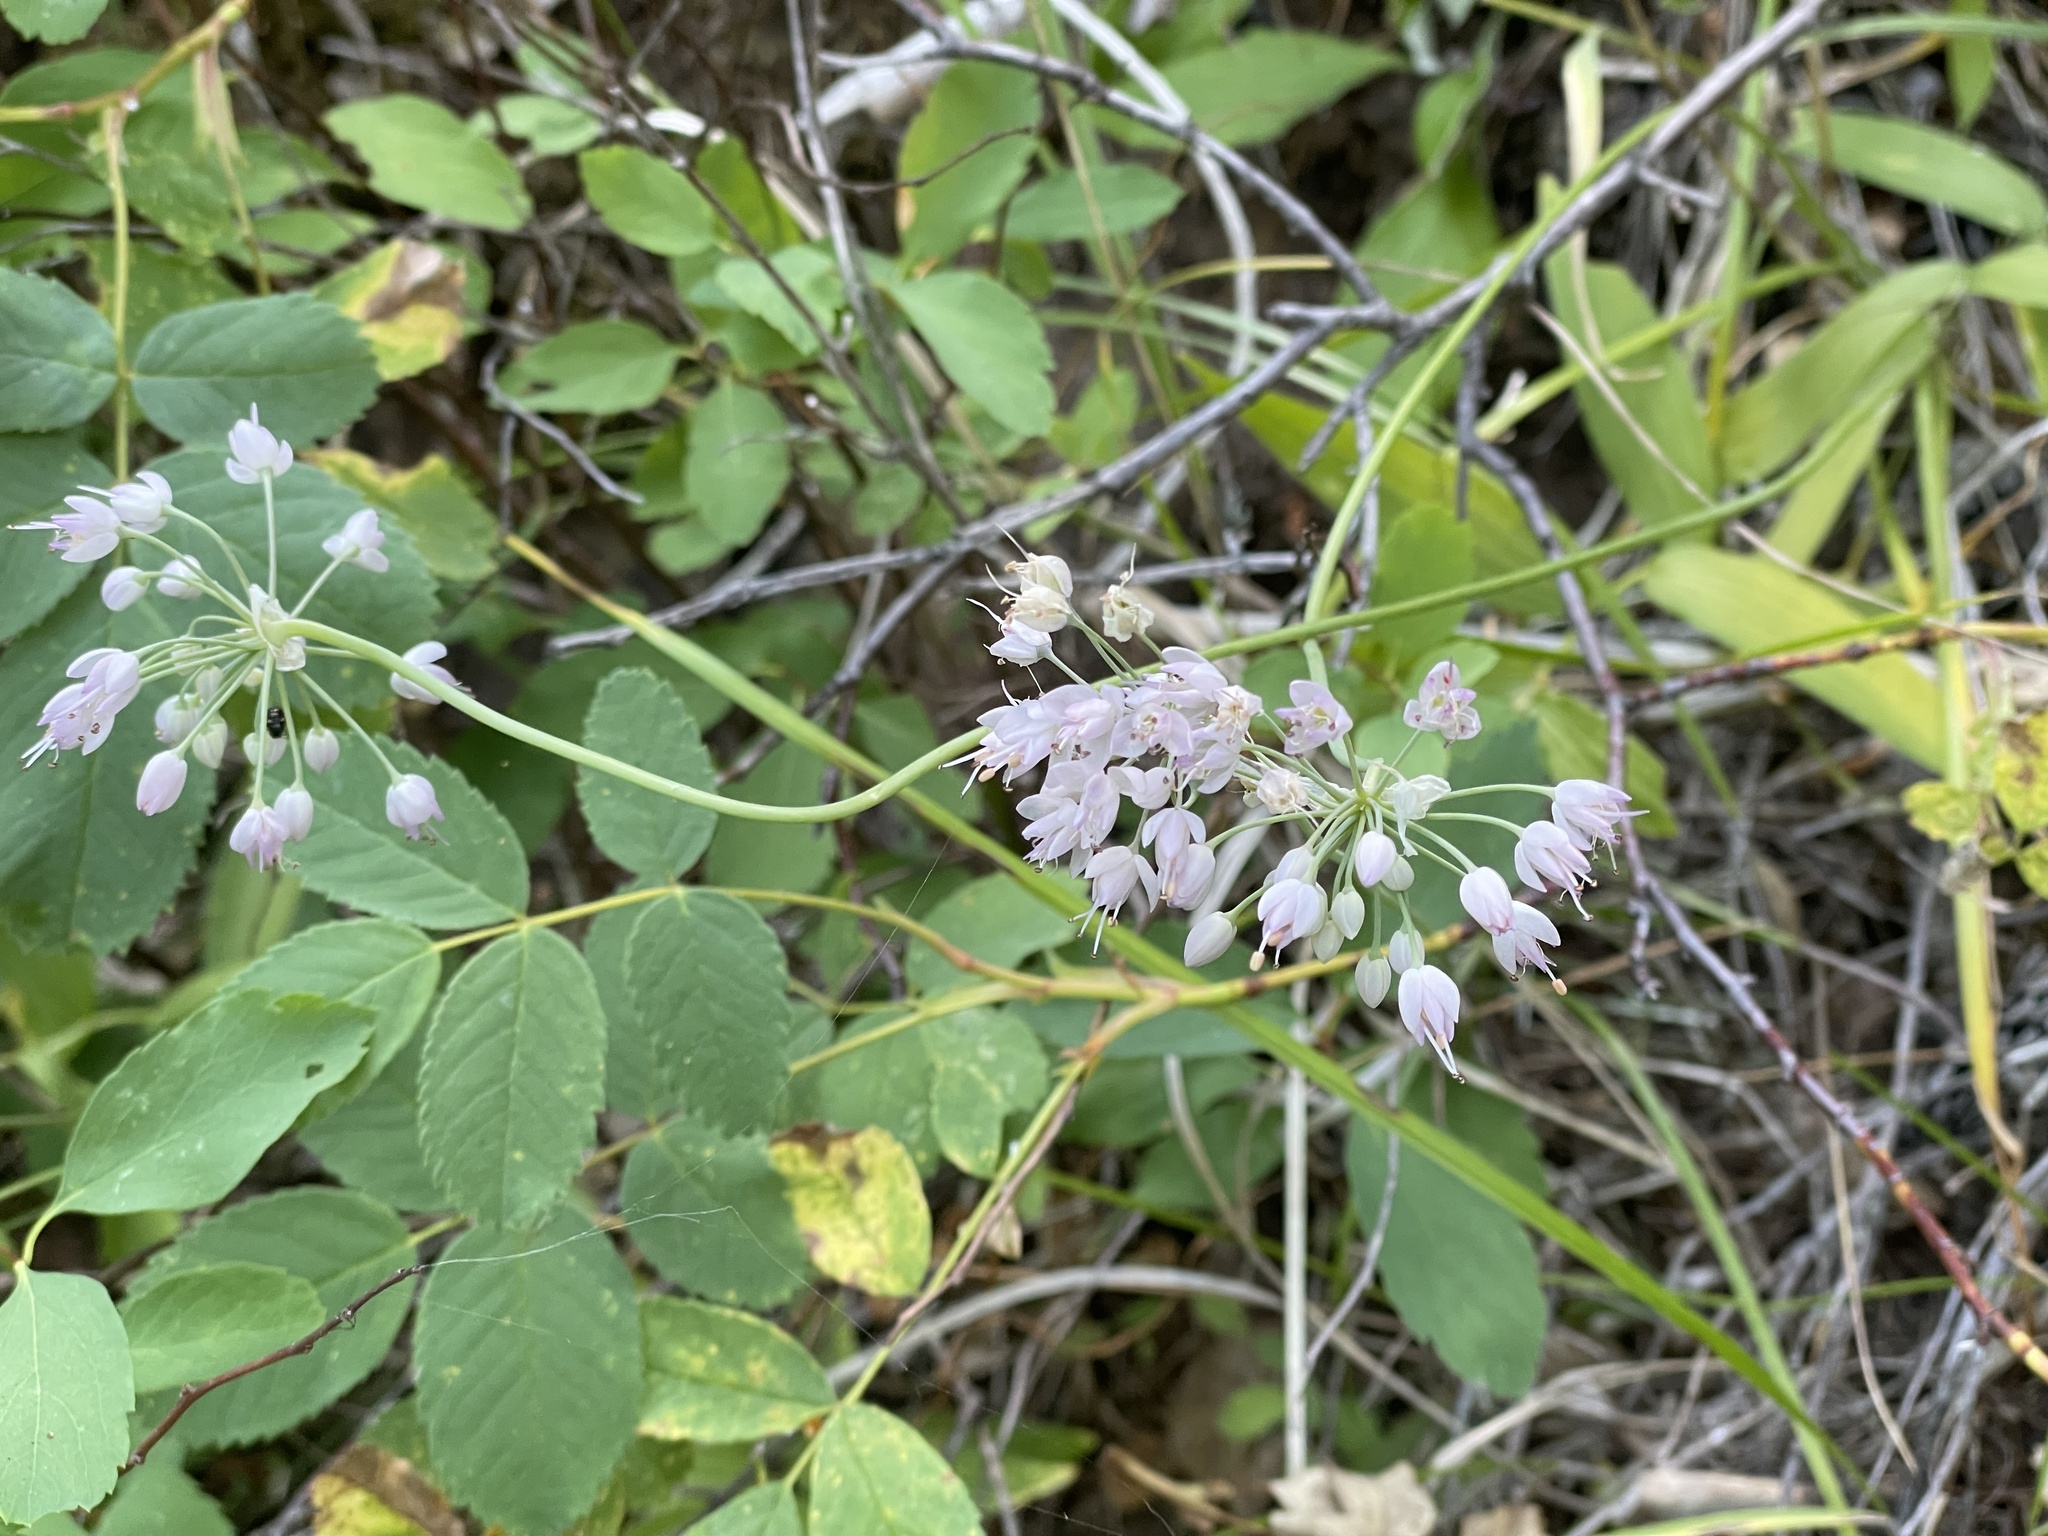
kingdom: Plantae
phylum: Tracheophyta
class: Liliopsida
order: Asparagales
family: Amaryllidaceae
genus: Allium
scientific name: Allium cernuum
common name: Nodding onion
